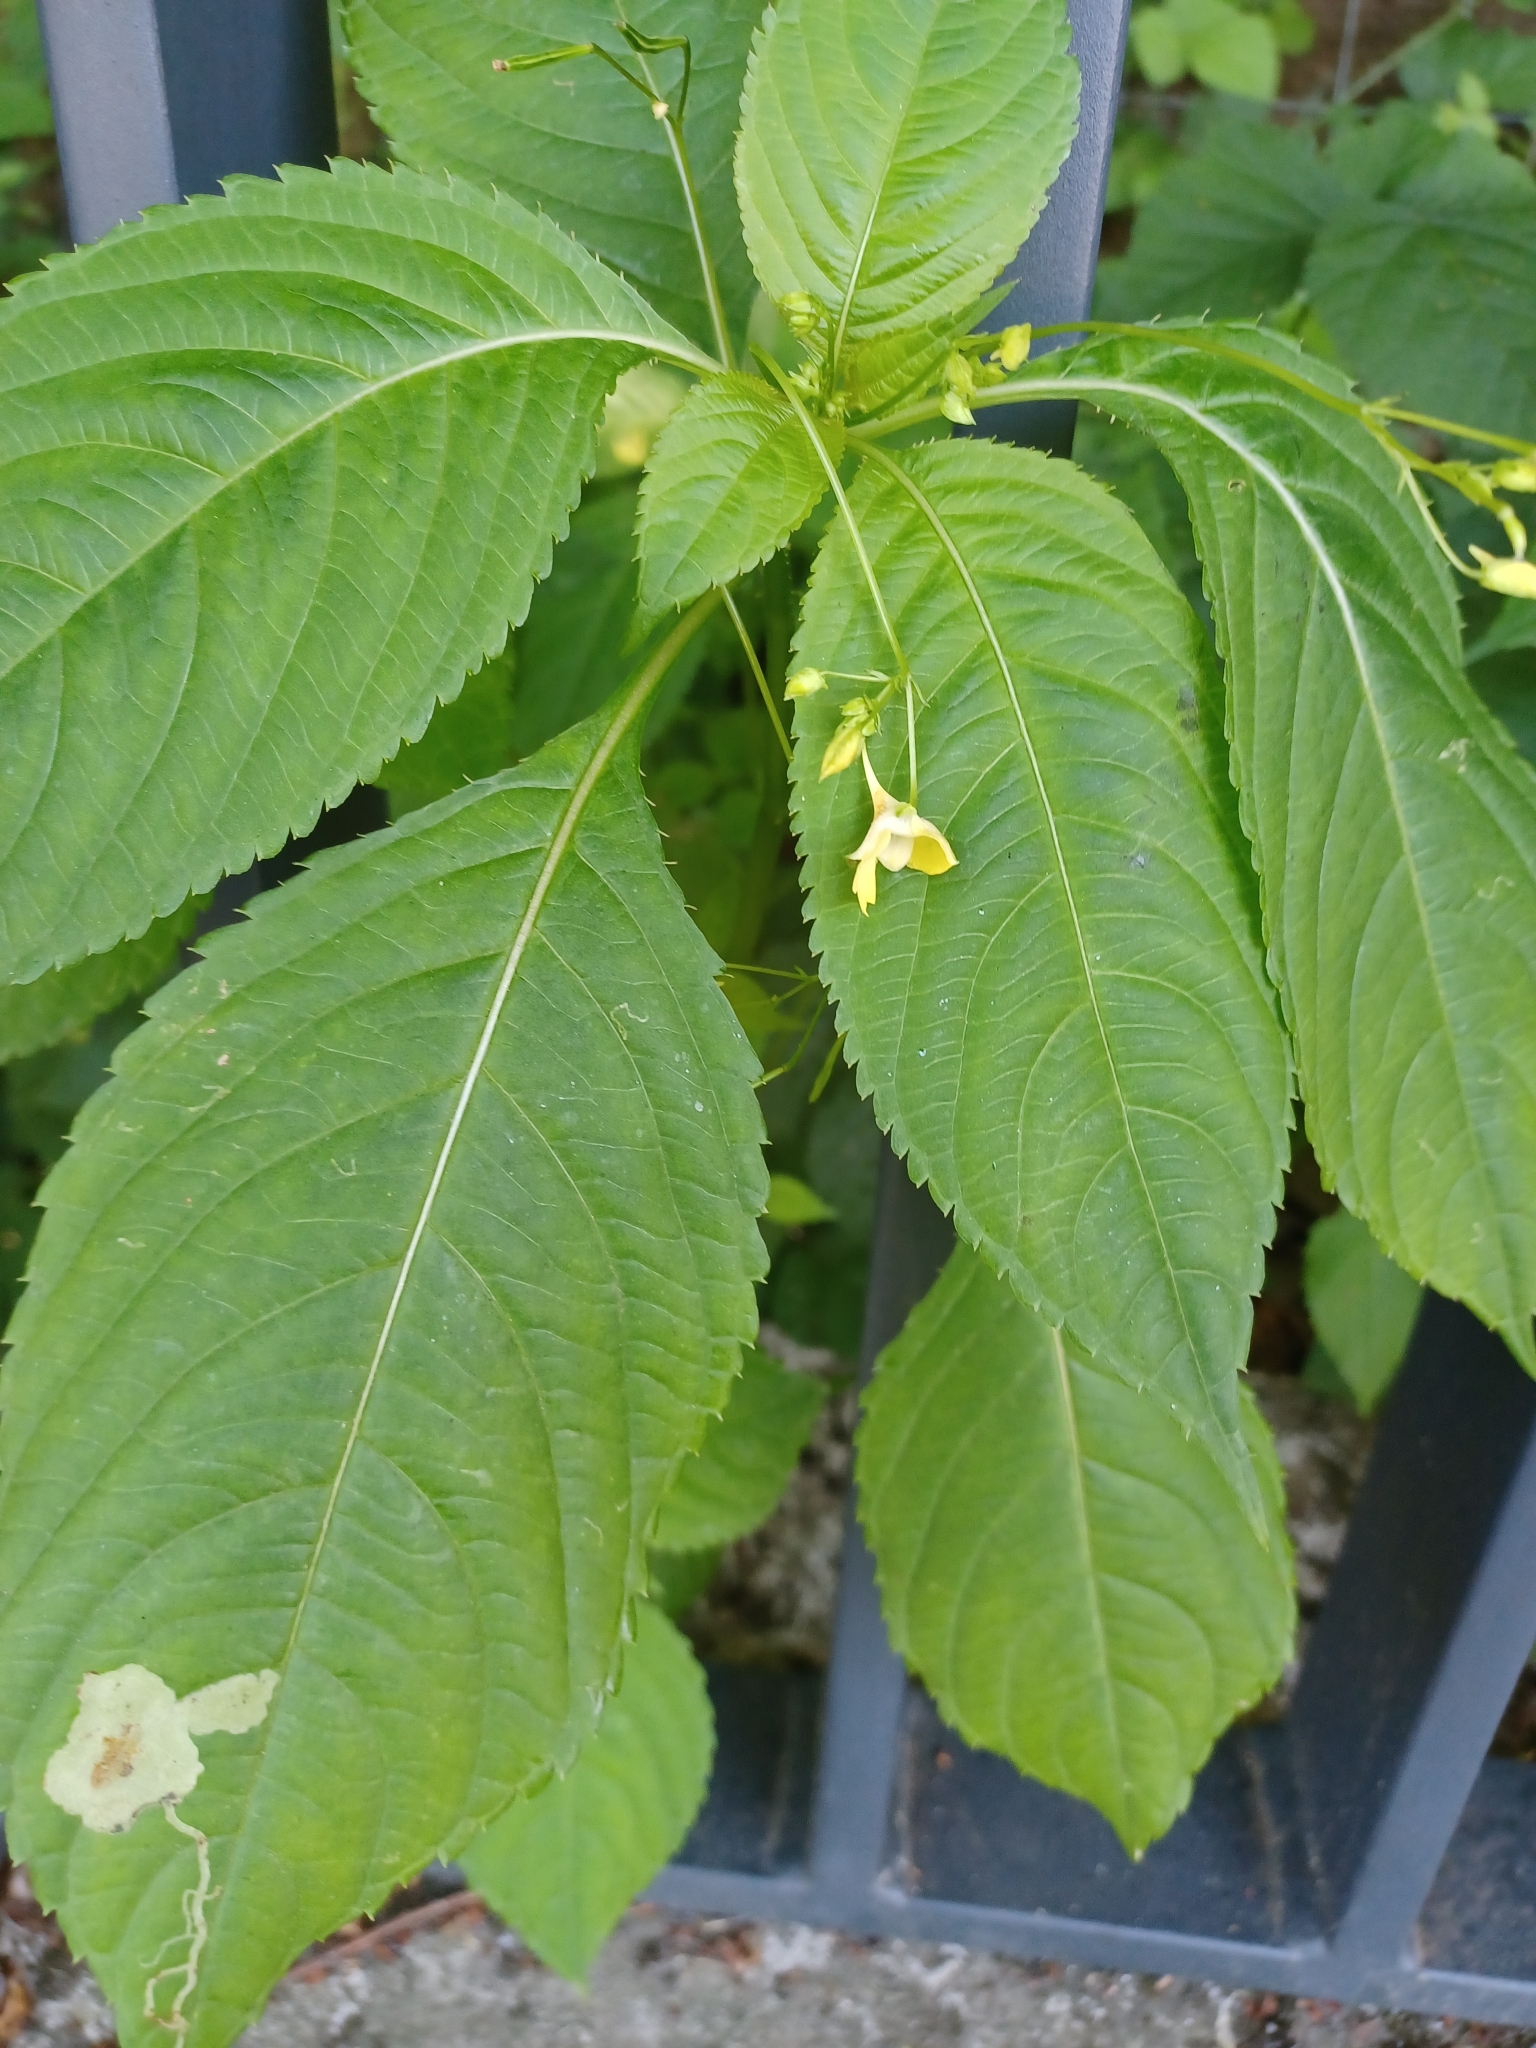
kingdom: Plantae
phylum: Tracheophyta
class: Magnoliopsida
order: Ericales
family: Balsaminaceae
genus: Impatiens
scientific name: Impatiens parviflora
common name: Small balsam
